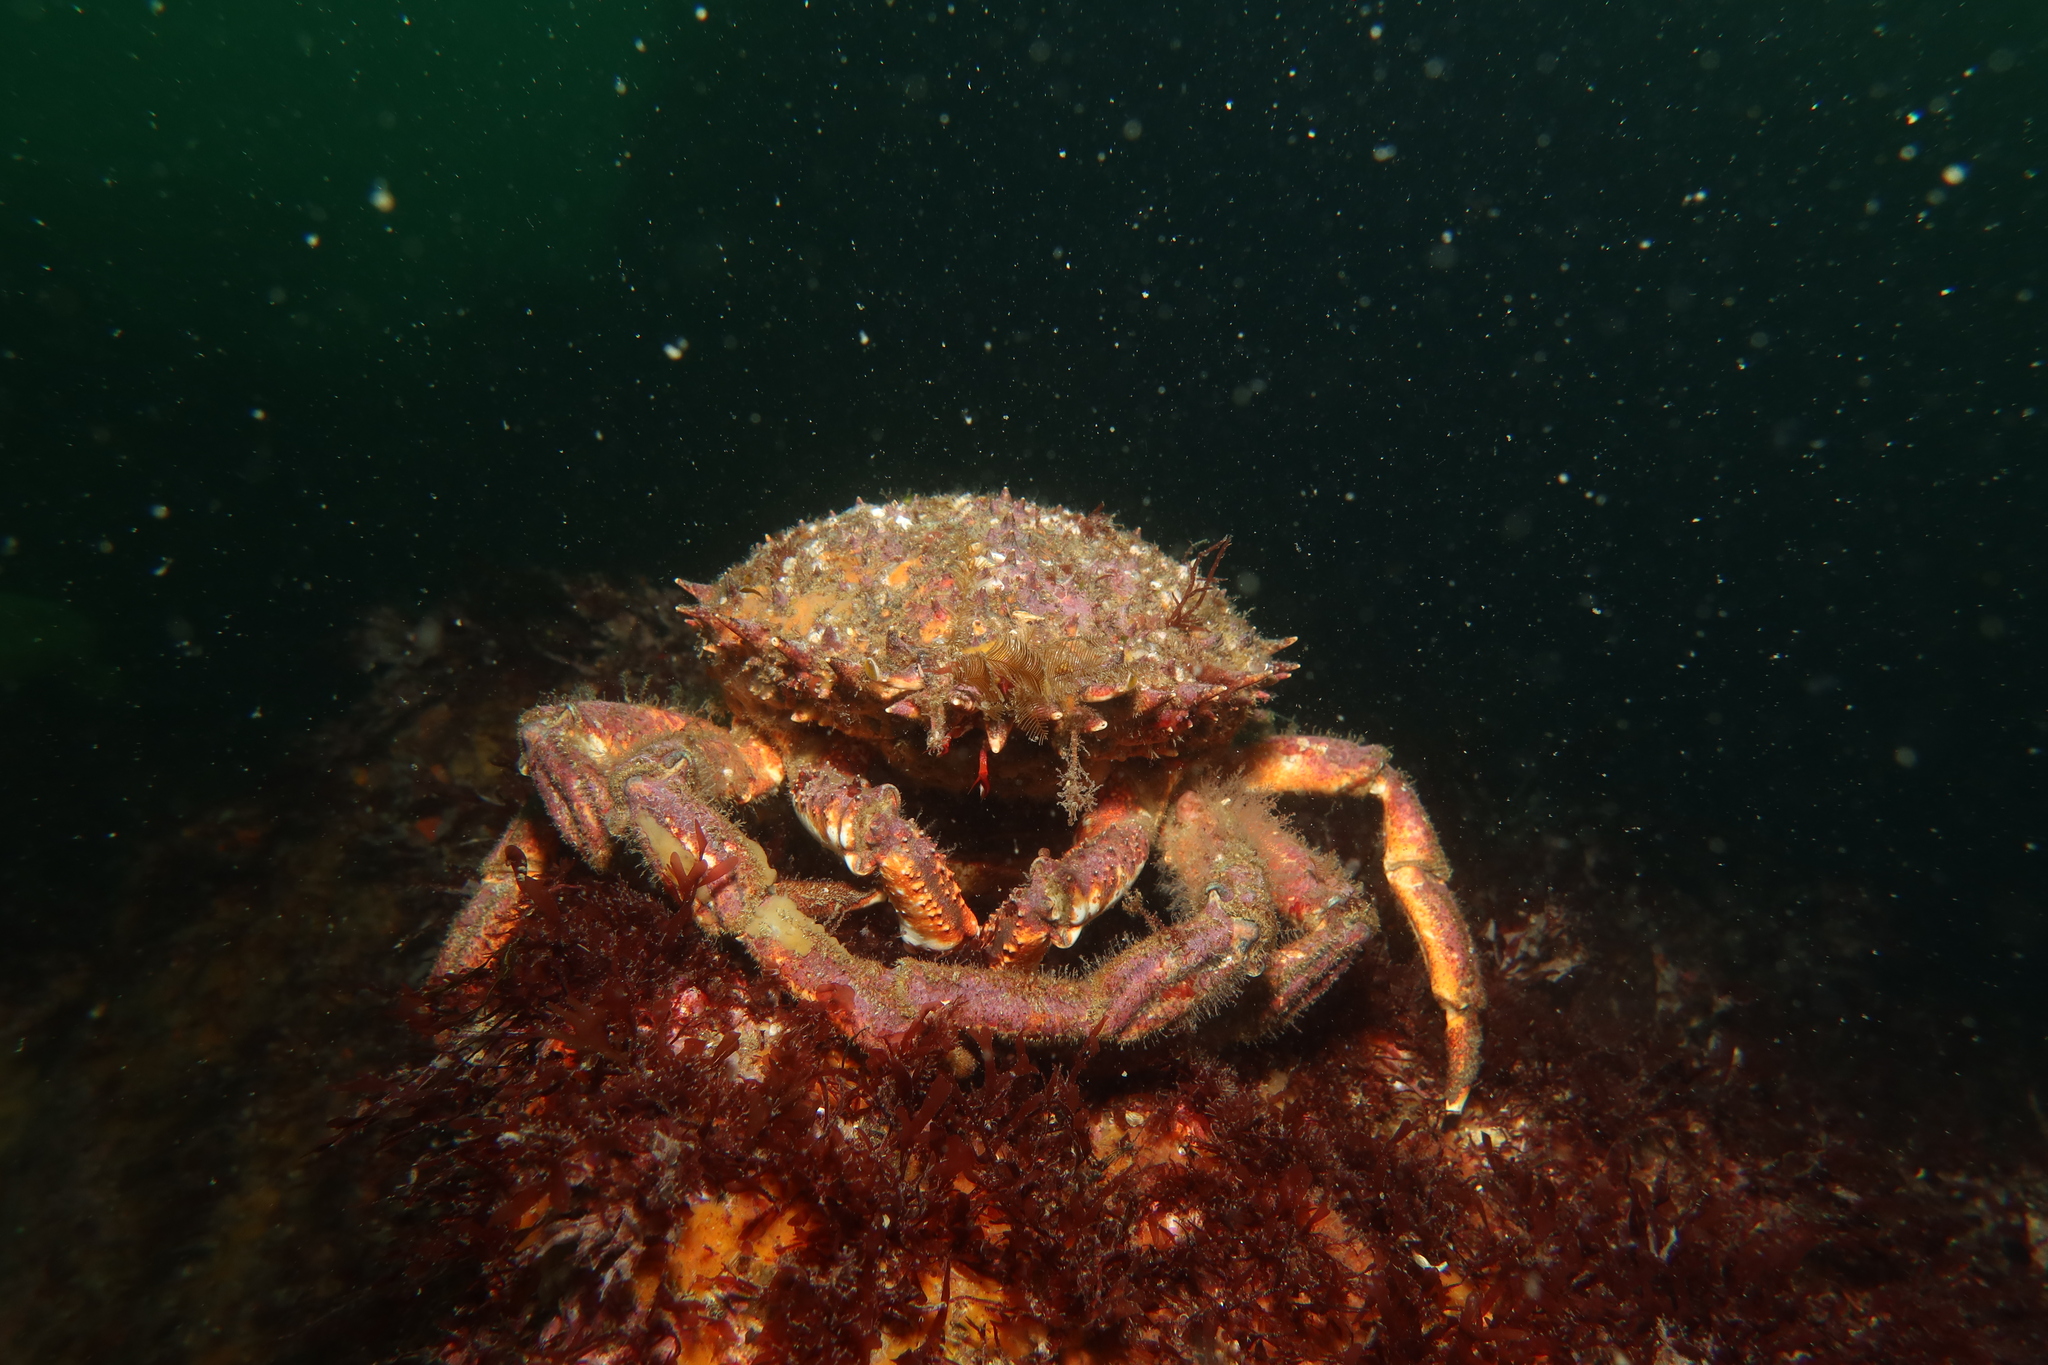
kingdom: Animalia
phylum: Arthropoda
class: Malacostraca
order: Decapoda
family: Majidae
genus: Maja
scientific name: Maja brachydactyla
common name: Common spider crab
